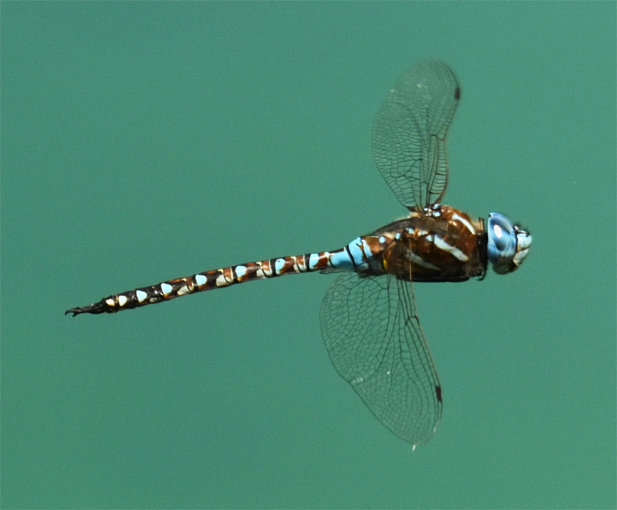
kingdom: Animalia
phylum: Arthropoda
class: Insecta
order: Odonata
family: Aeshnidae
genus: Rhionaeschna
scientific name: Rhionaeschna multicolor
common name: Blue-eyed darner
